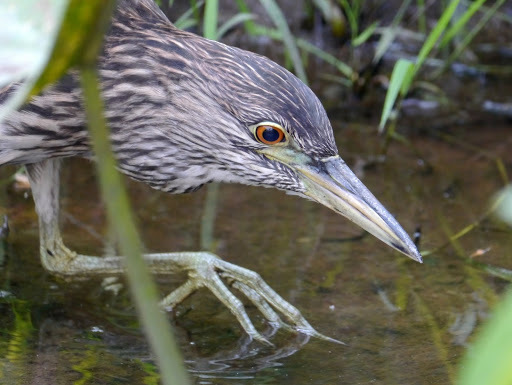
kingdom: Animalia
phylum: Chordata
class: Aves
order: Pelecaniformes
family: Ardeidae
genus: Nycticorax
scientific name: Nycticorax nycticorax
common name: Black-crowned night heron
